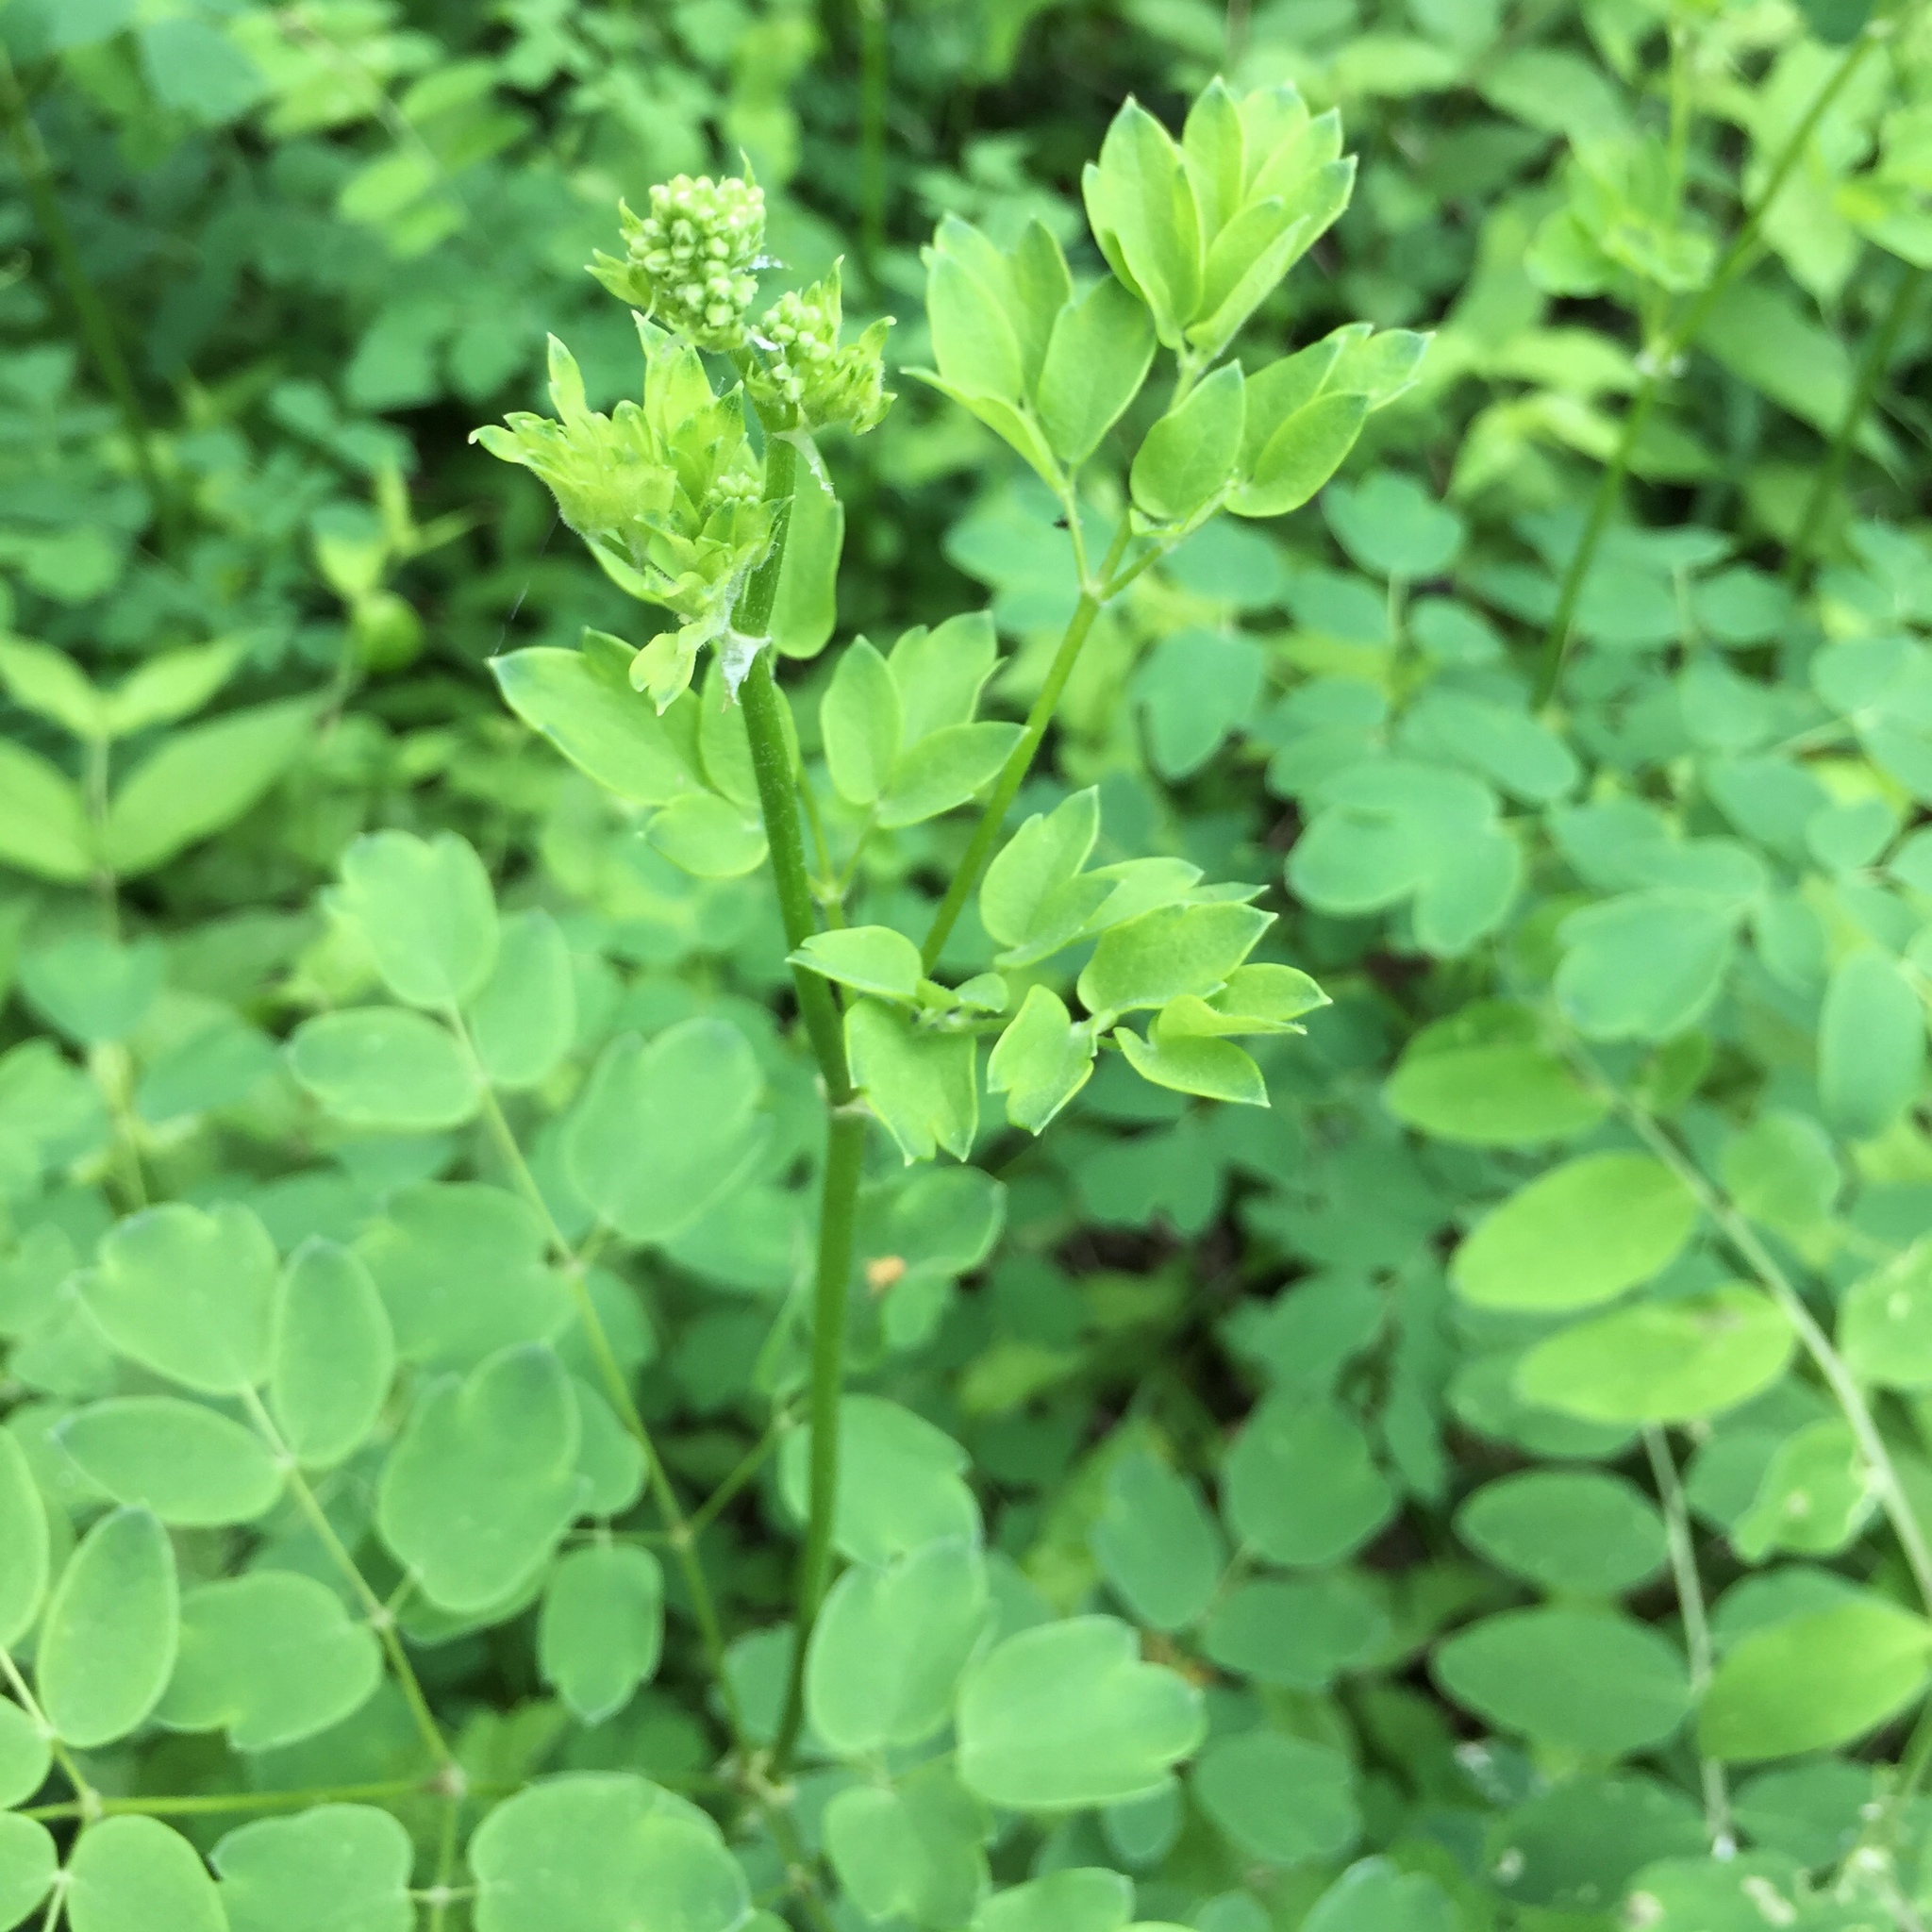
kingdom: Plantae
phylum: Tracheophyta
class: Magnoliopsida
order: Ranunculales
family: Ranunculaceae
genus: Thalictrum
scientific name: Thalictrum dasycarpum
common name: Purple meadow-rue
